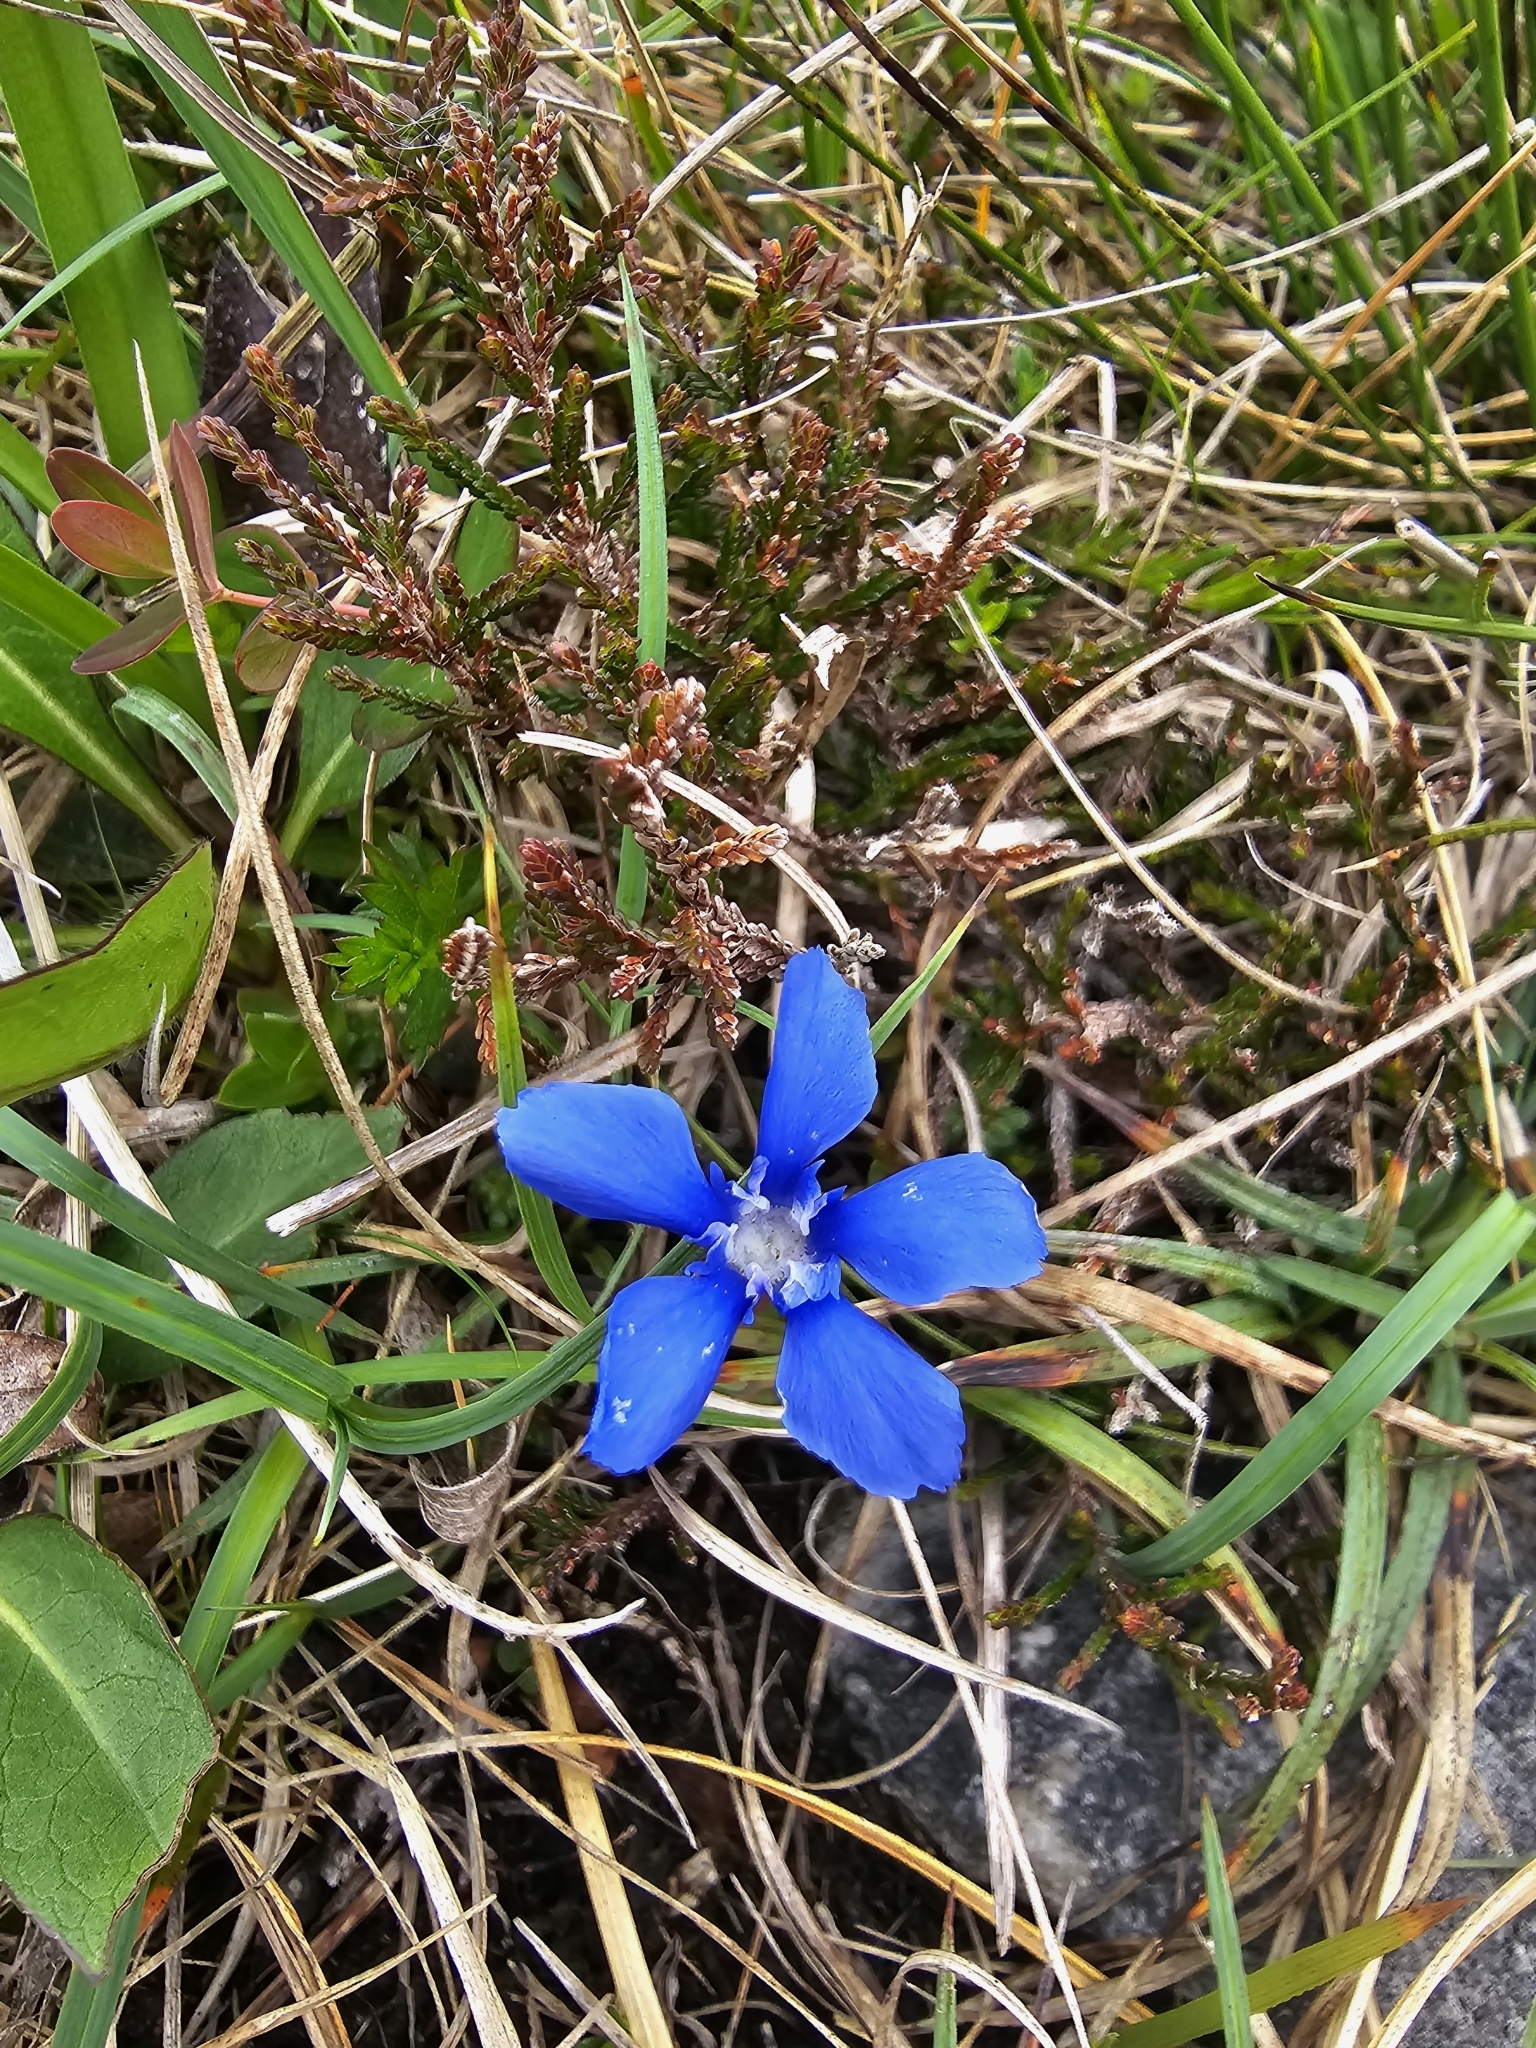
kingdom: Plantae
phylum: Tracheophyta
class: Magnoliopsida
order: Gentianales
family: Gentianaceae
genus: Gentiana
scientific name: Gentiana verna
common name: Spring gentian
